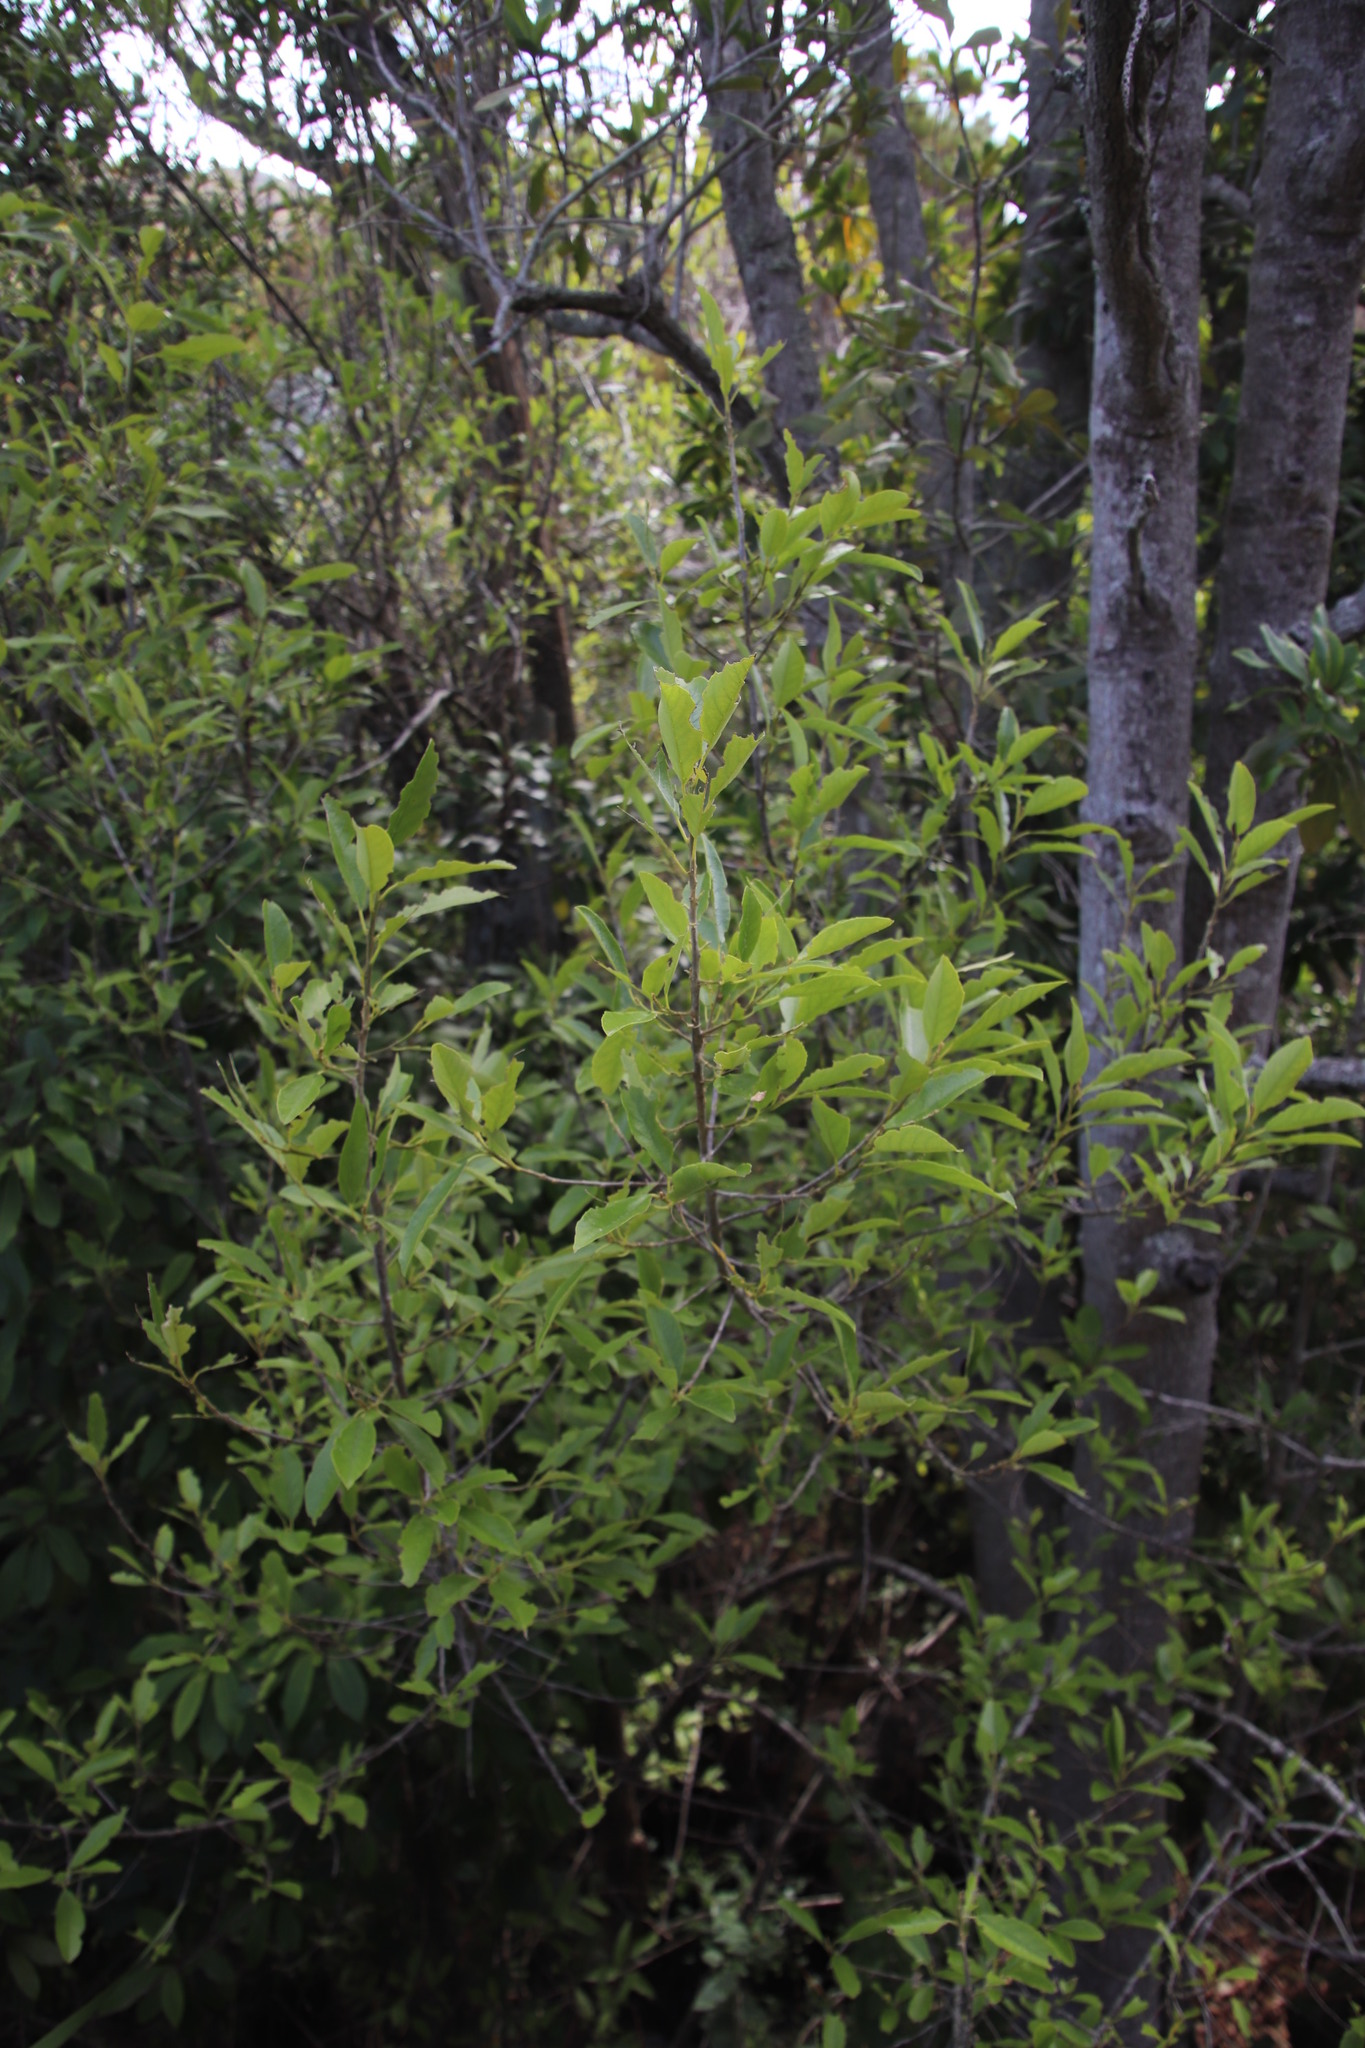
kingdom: Plantae
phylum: Tracheophyta
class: Magnoliopsida
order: Malpighiales
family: Achariaceae
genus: Kiggelaria
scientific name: Kiggelaria africana
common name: Wild peach
